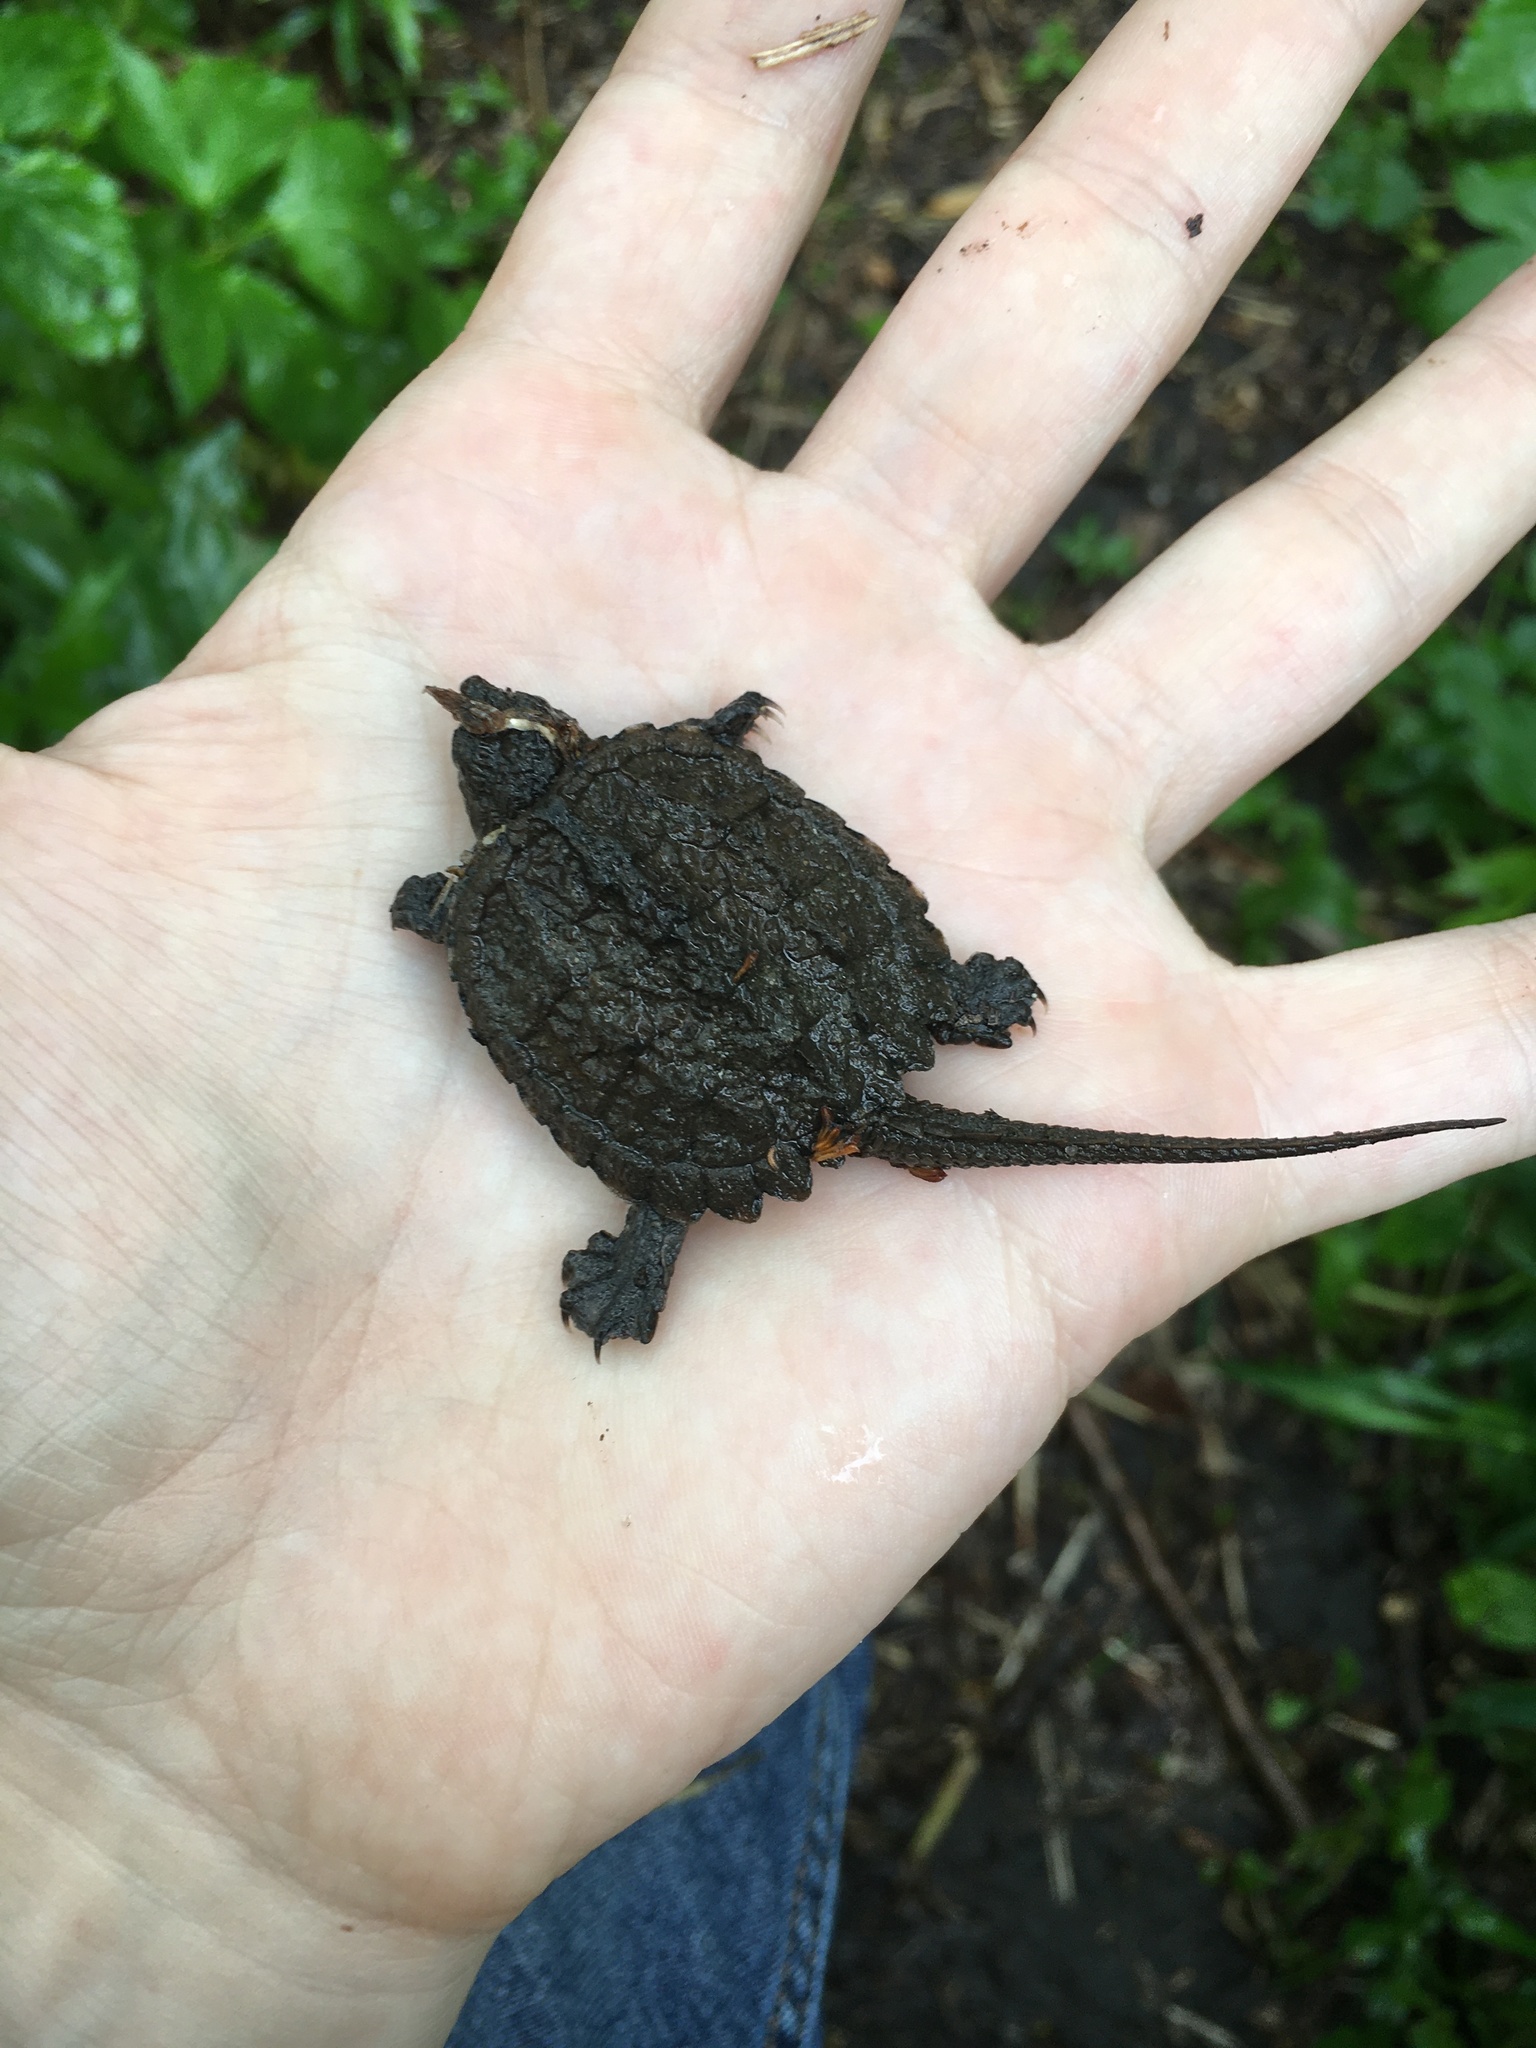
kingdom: Animalia
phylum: Chordata
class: Testudines
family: Chelydridae
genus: Chelydra
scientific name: Chelydra serpentina
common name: Common snapping turtle
